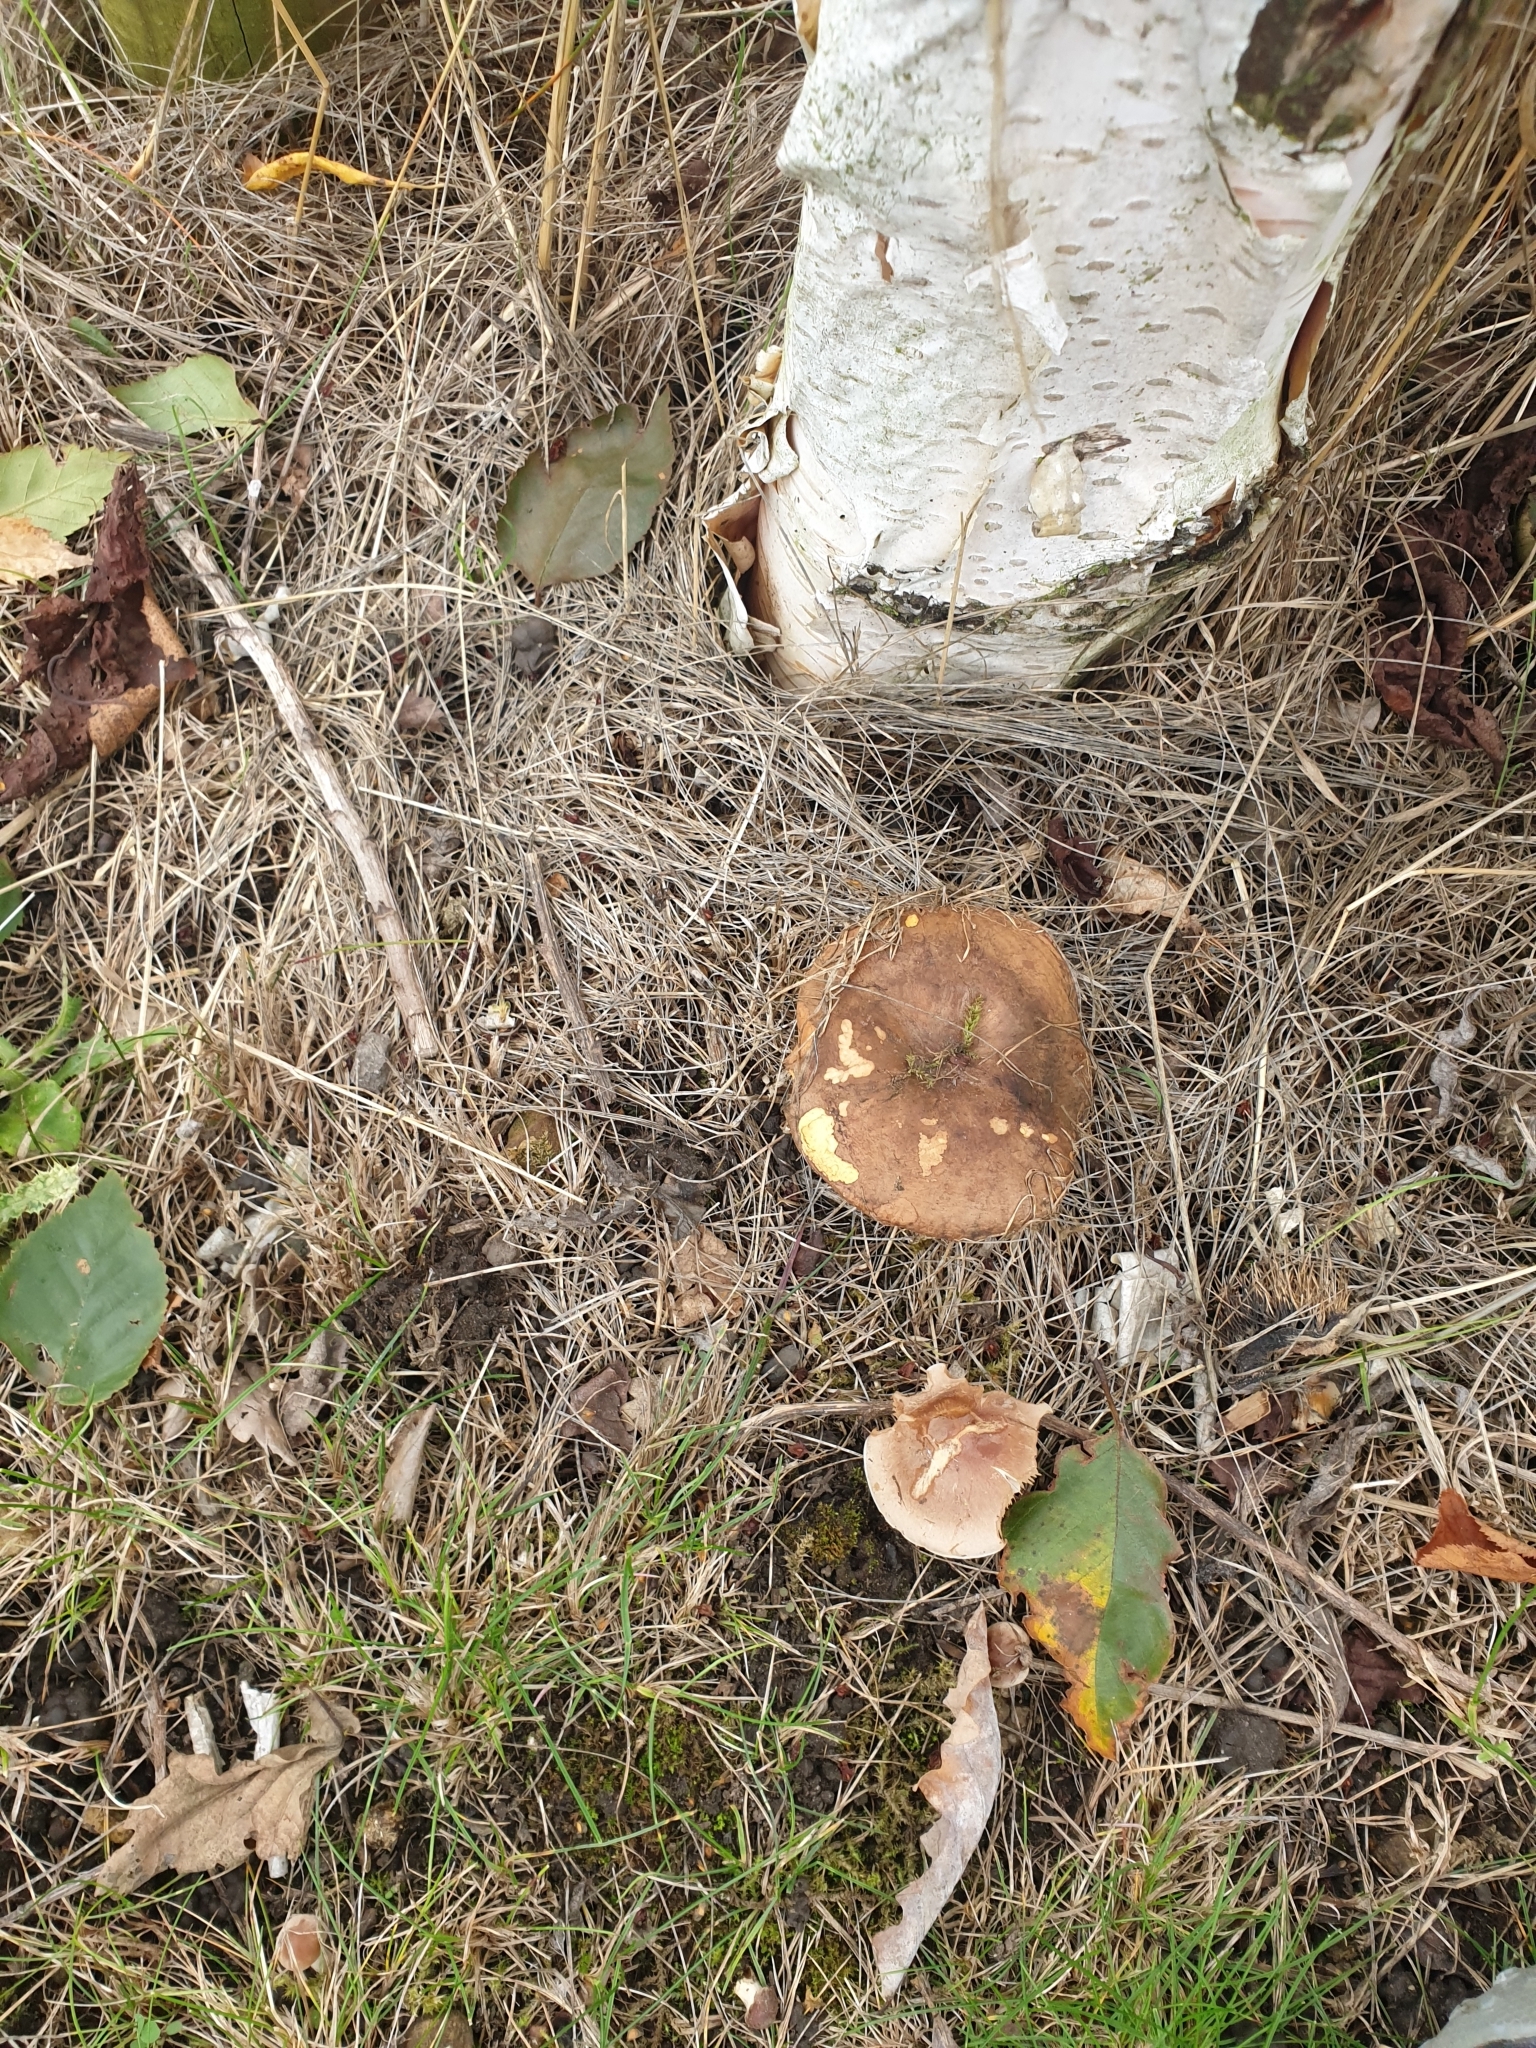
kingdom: Fungi
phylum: Basidiomycota
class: Agaricomycetes
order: Boletales
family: Paxillaceae
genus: Paxillus
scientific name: Paxillus involutus
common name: Brown roll rim
